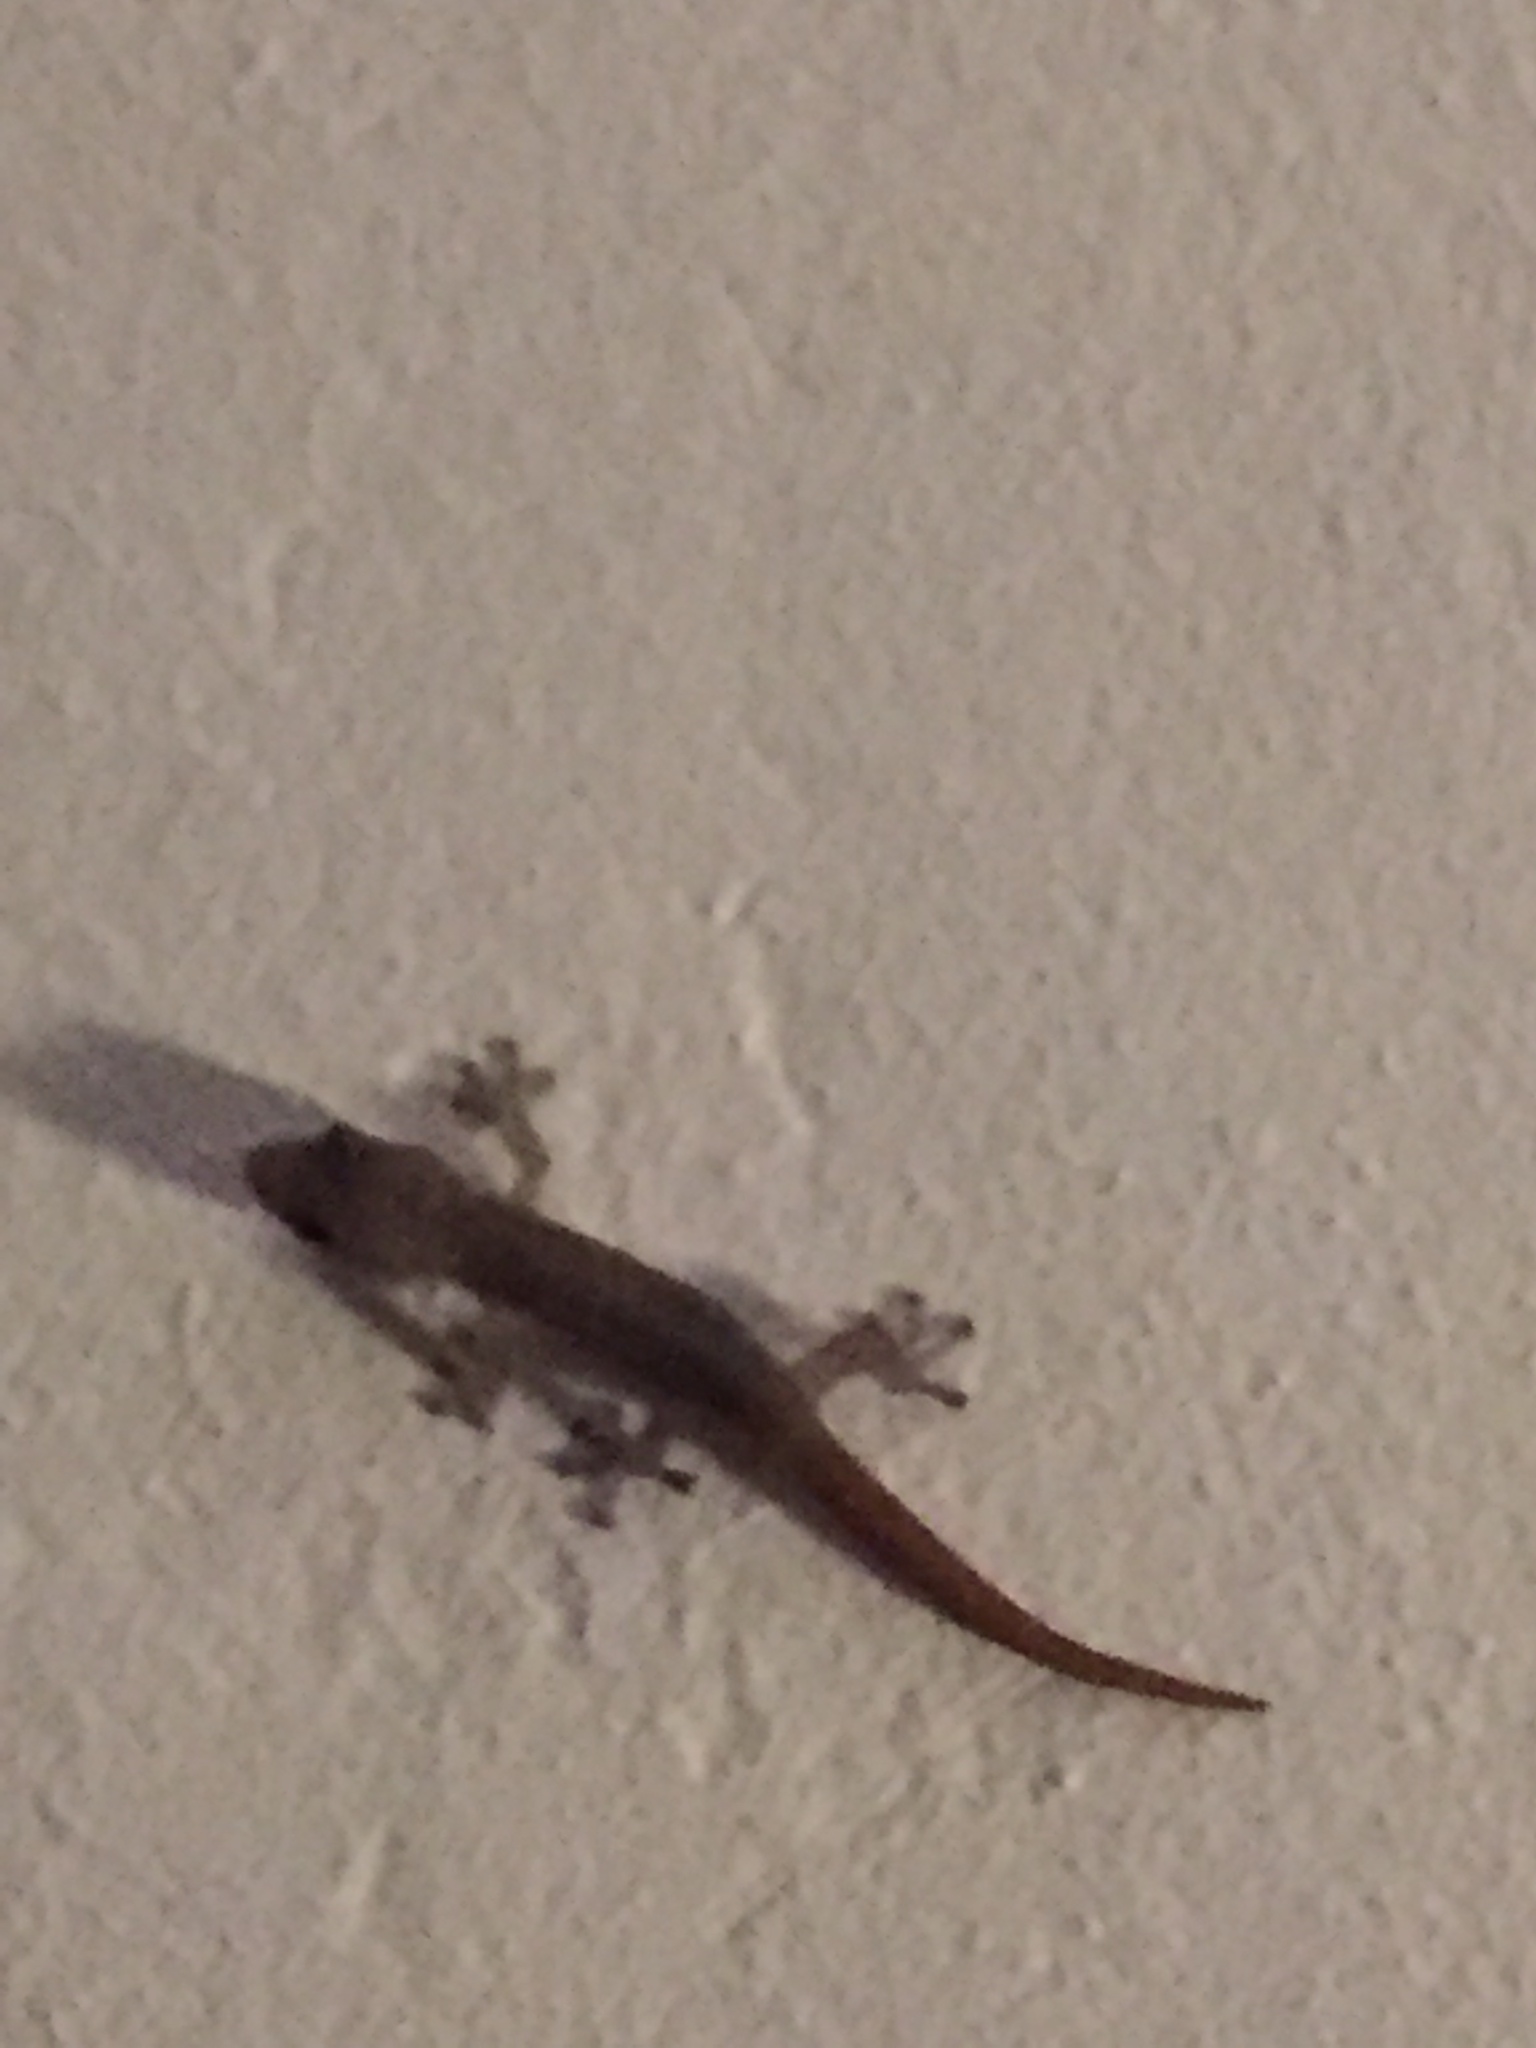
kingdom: Animalia
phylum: Chordata
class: Squamata
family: Gekkonidae
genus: Afrogecko
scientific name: Afrogecko porphyreus
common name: Marbled leaf-toed gecko
